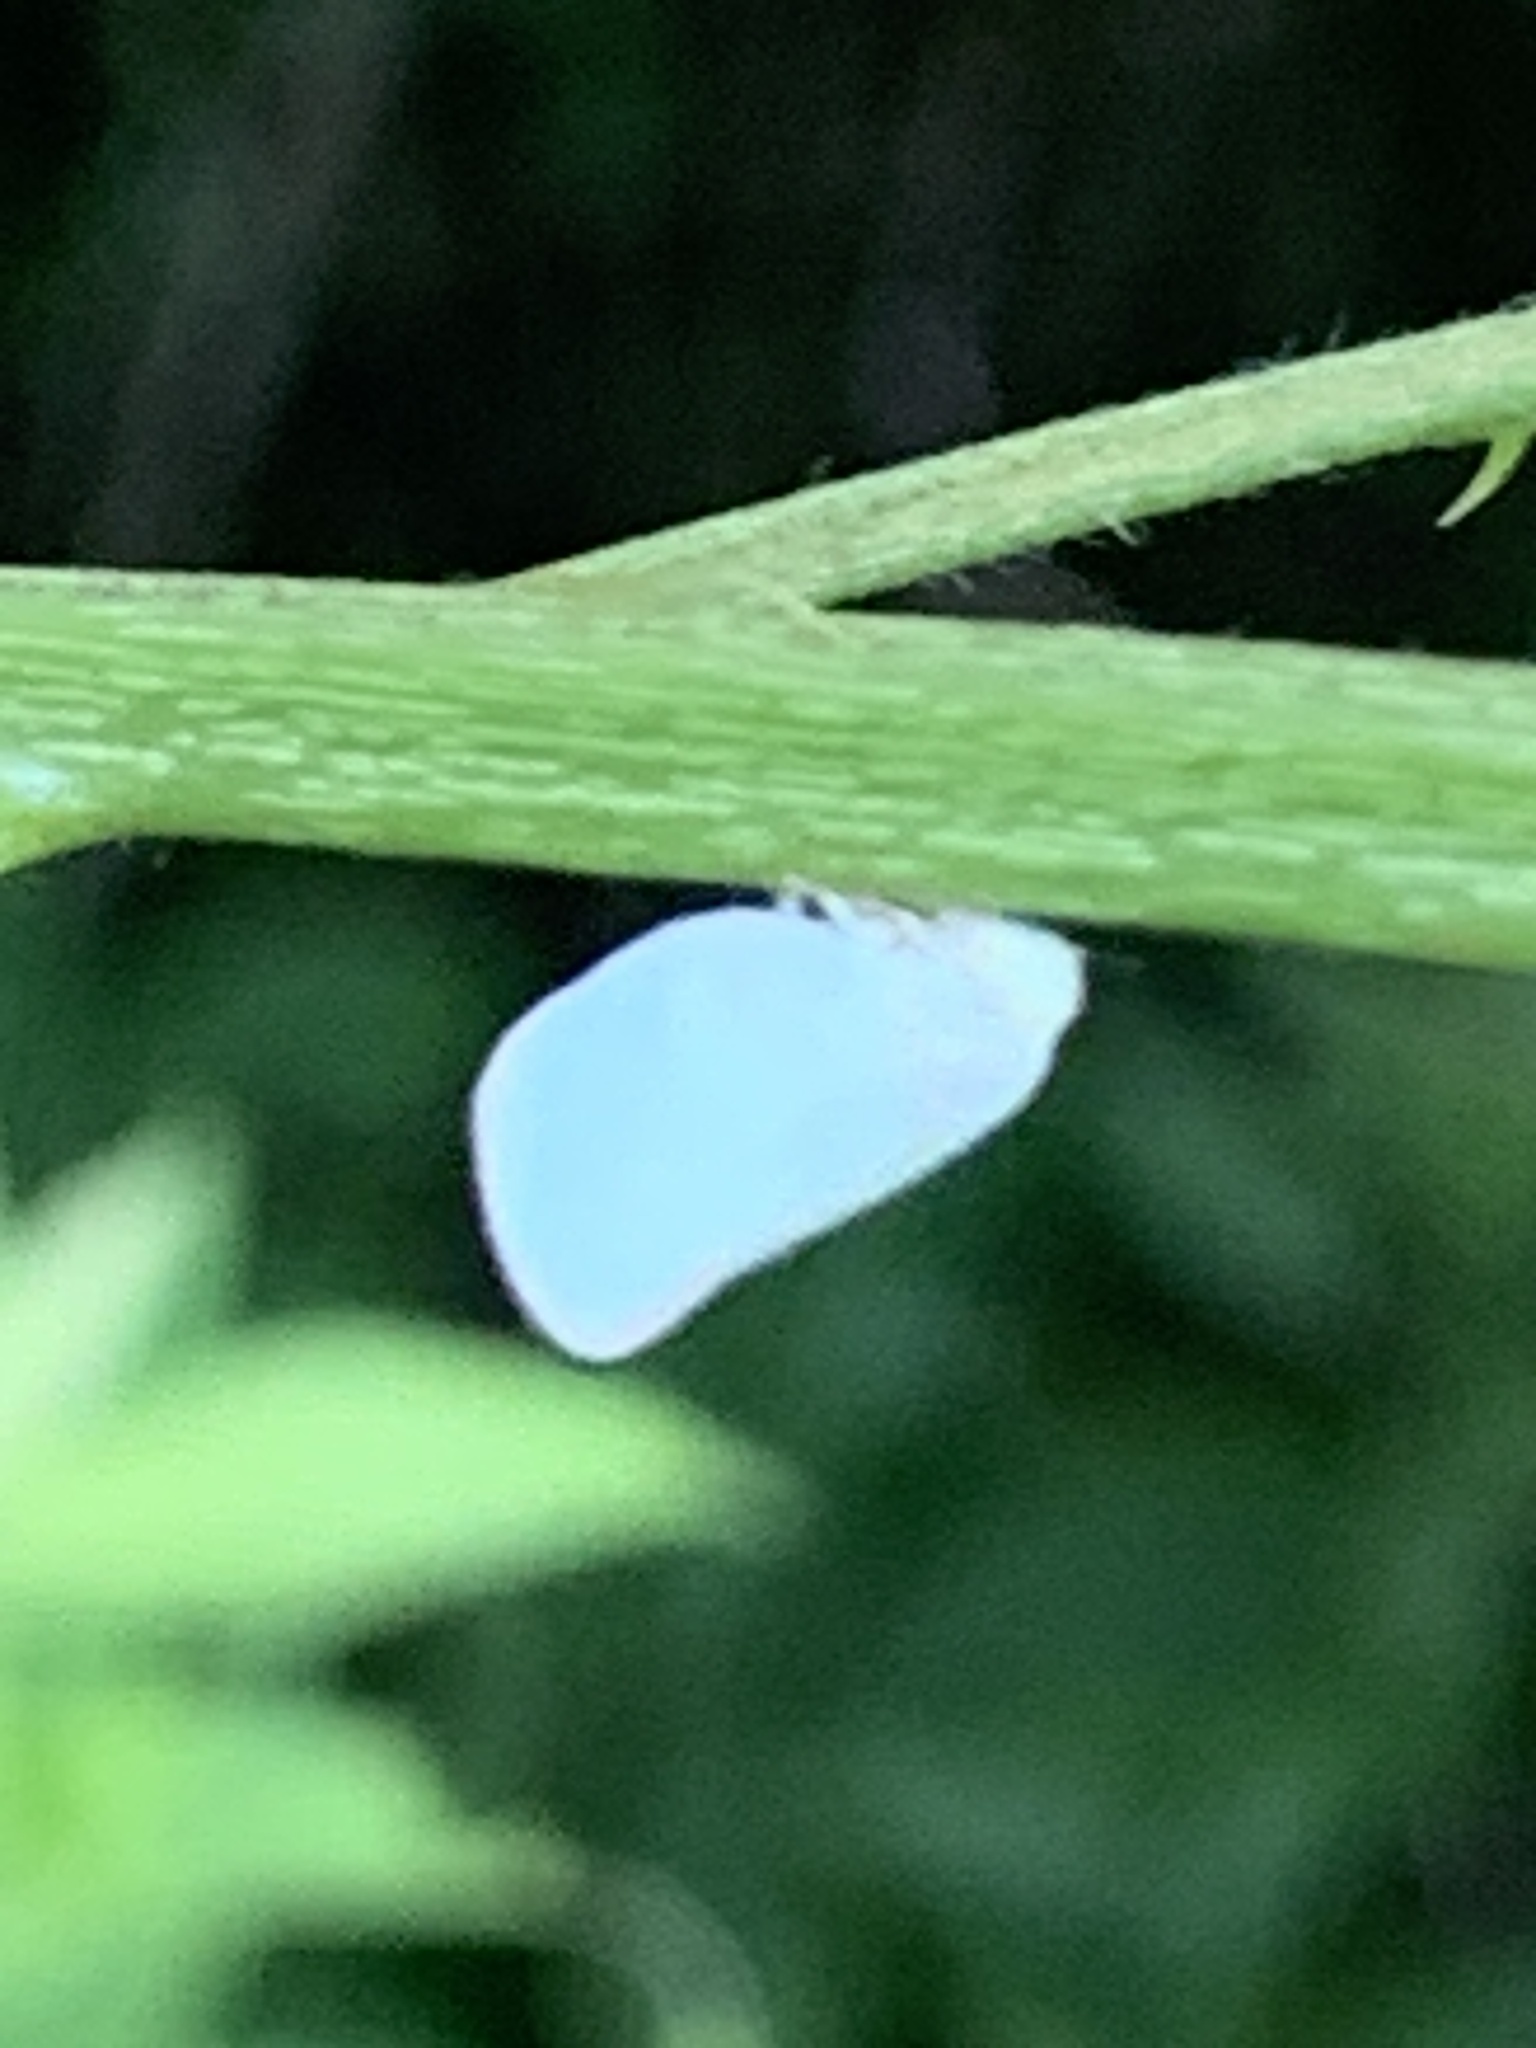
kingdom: Animalia
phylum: Arthropoda
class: Insecta
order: Hemiptera
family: Flatidae
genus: Ormenoides
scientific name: Ormenoides venusta
